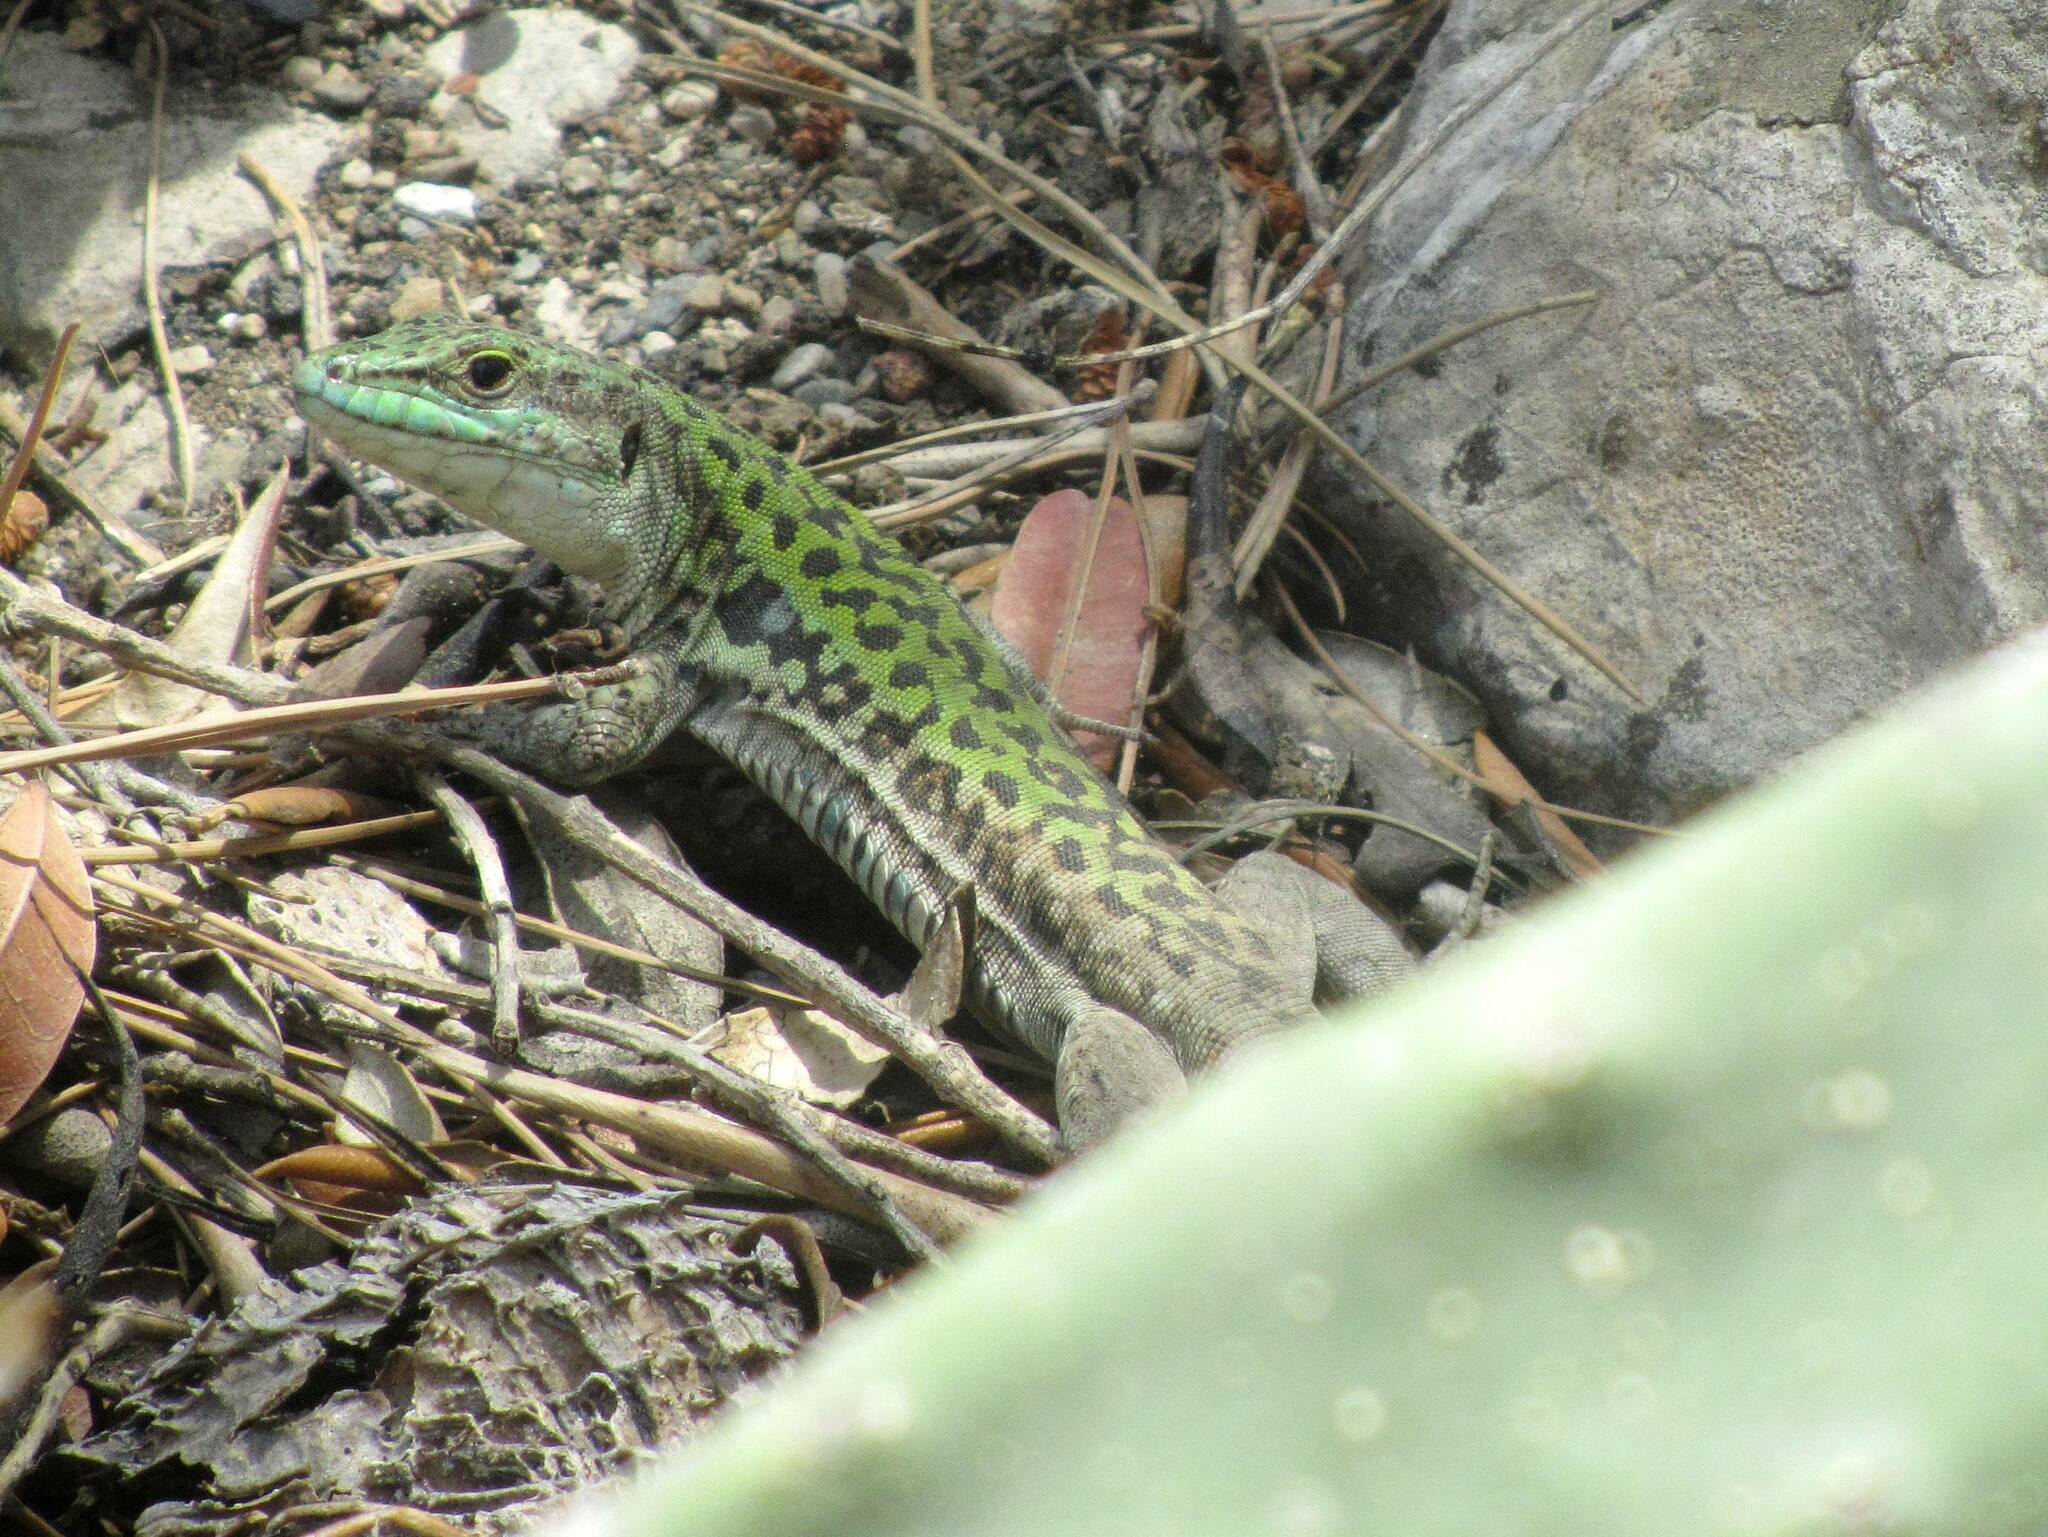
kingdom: Animalia
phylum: Chordata
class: Squamata
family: Lacertidae
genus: Podarcis
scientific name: Podarcis siculus
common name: Italian wall lizard
